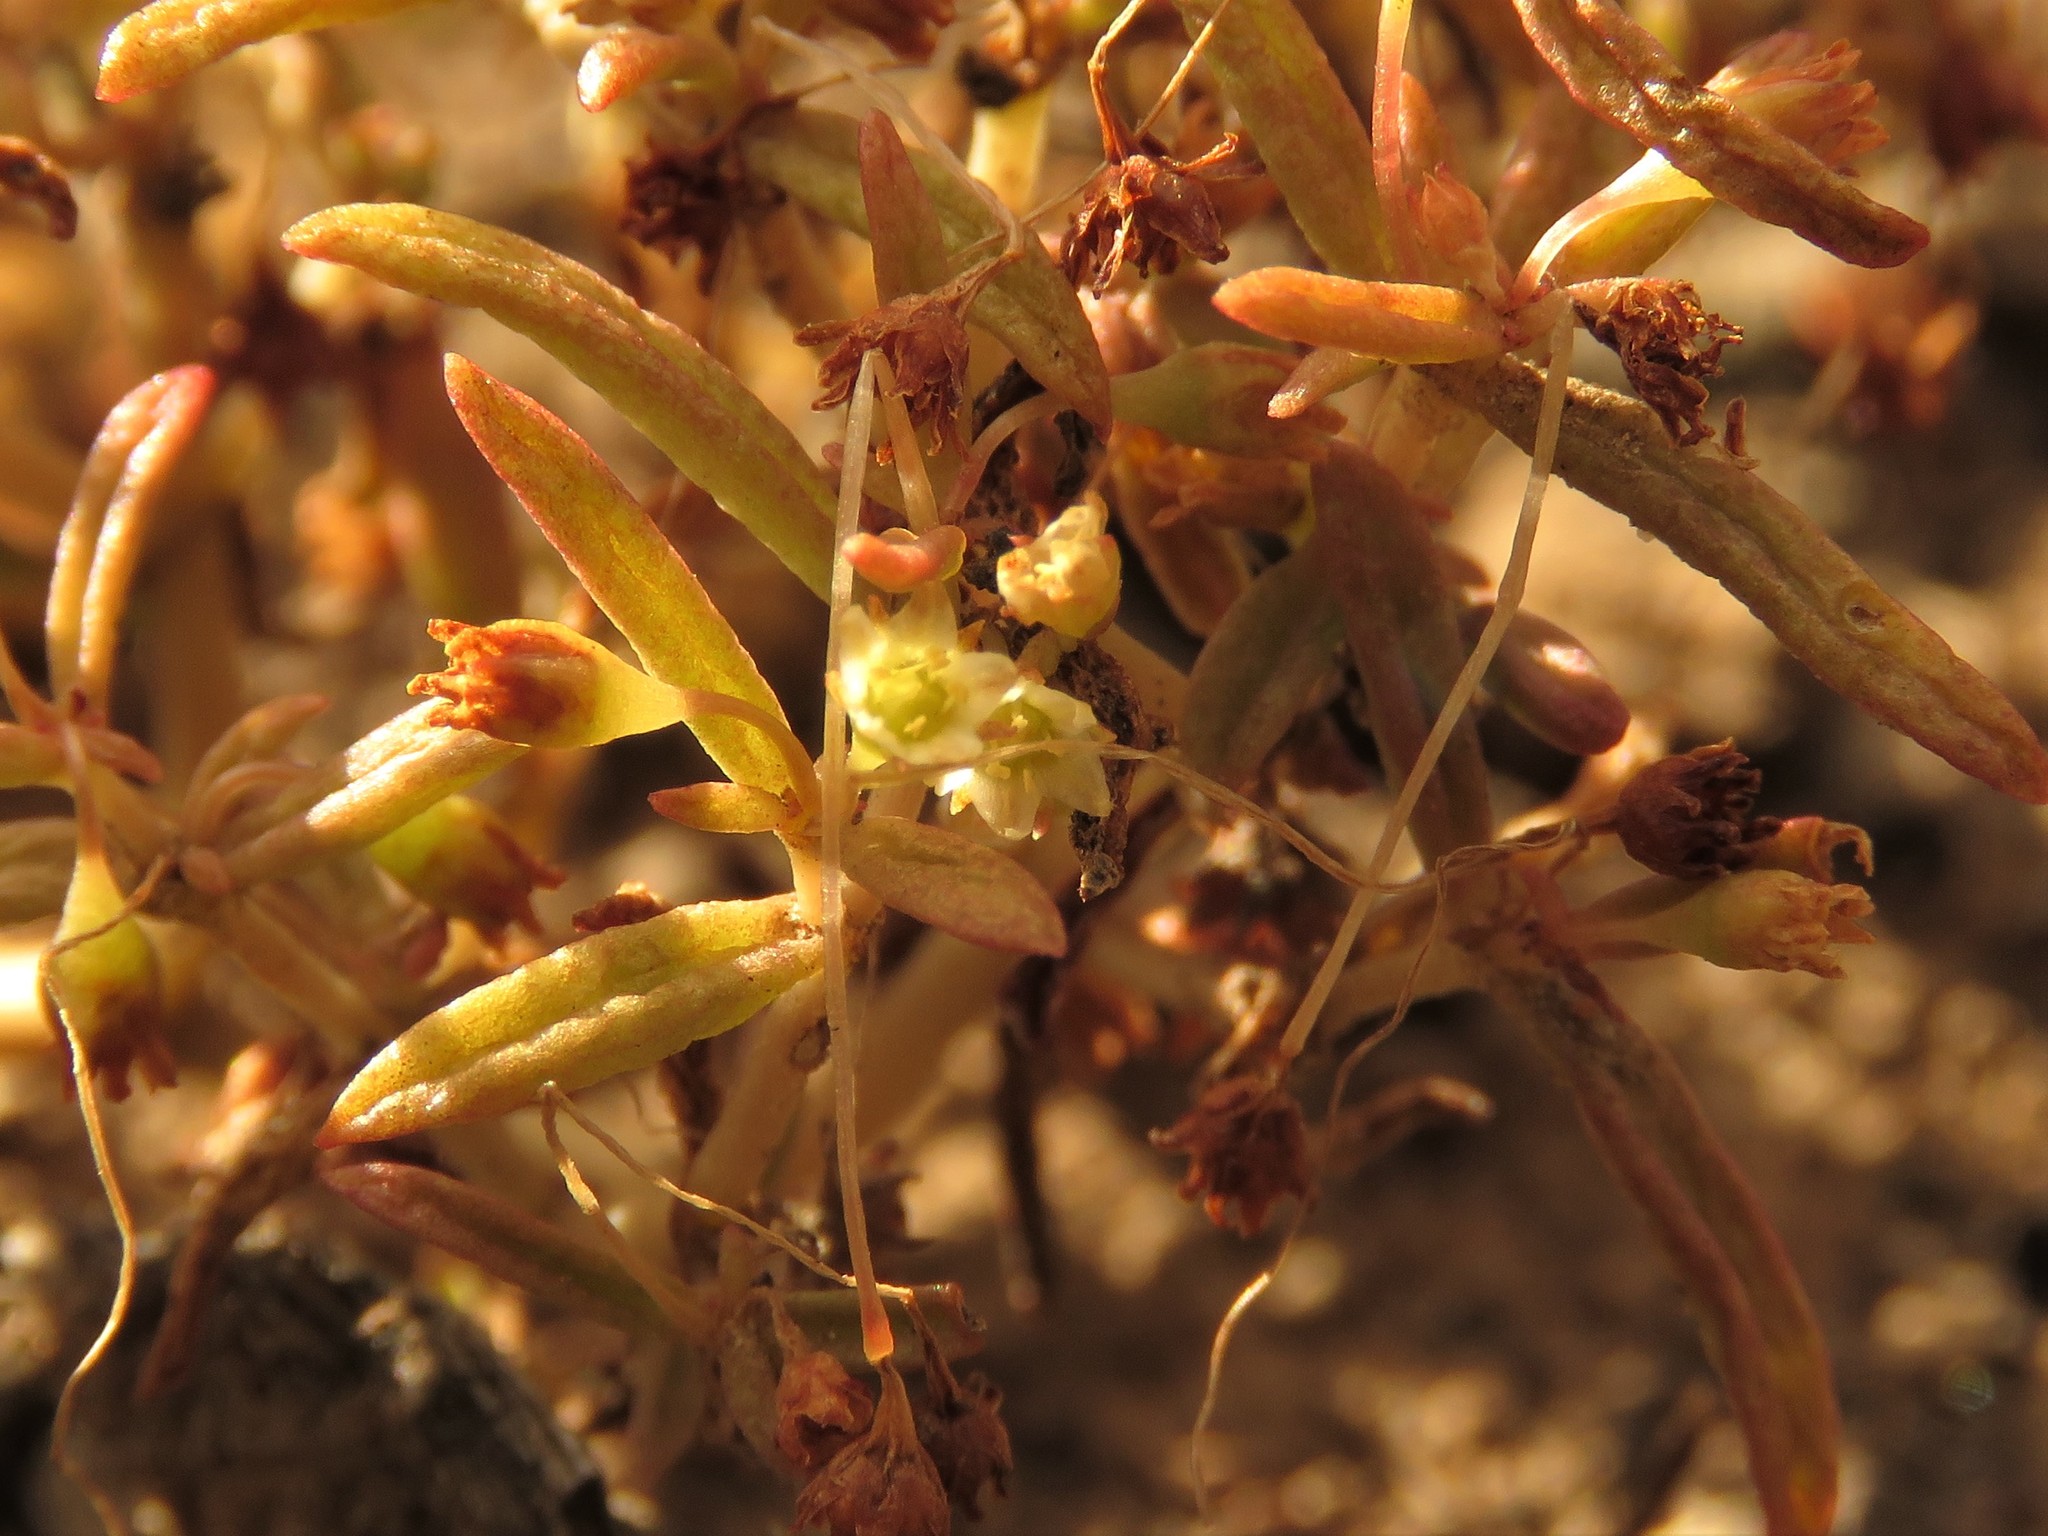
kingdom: Plantae
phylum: Tracheophyta
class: Magnoliopsida
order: Saxifragales
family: Crassulaceae
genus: Crassula
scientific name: Crassula expansa
